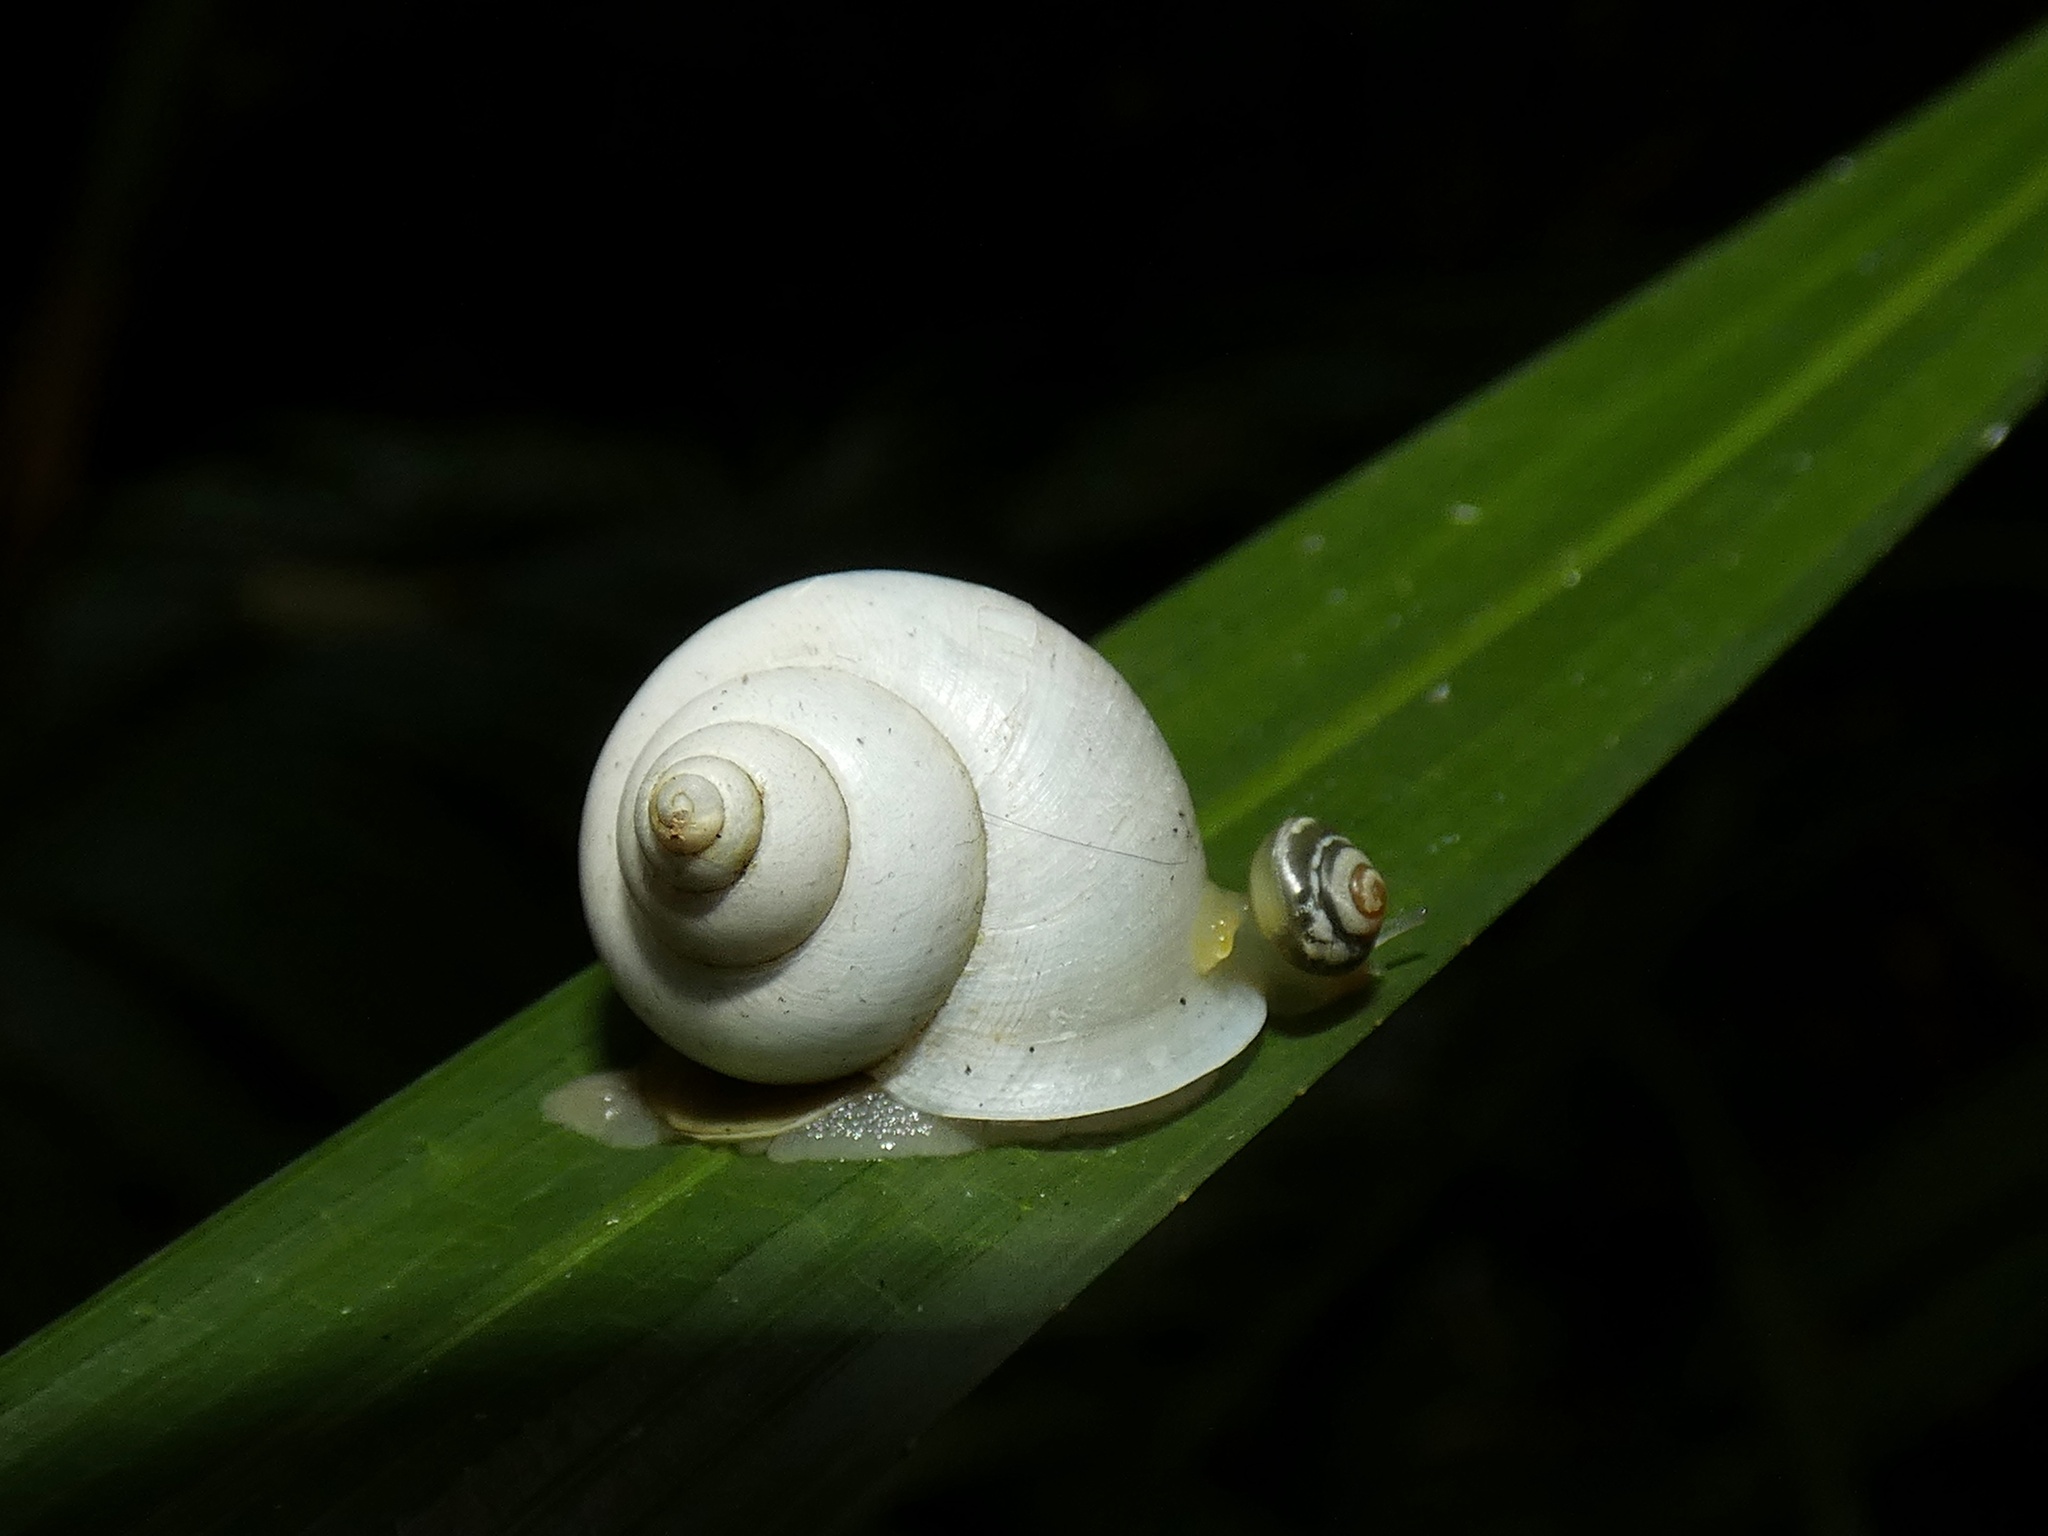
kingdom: Animalia
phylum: Mollusca
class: Gastropoda
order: Architaenioglossa
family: Cyclophoridae
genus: Leptopoma
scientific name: Leptopoma perlucidum
